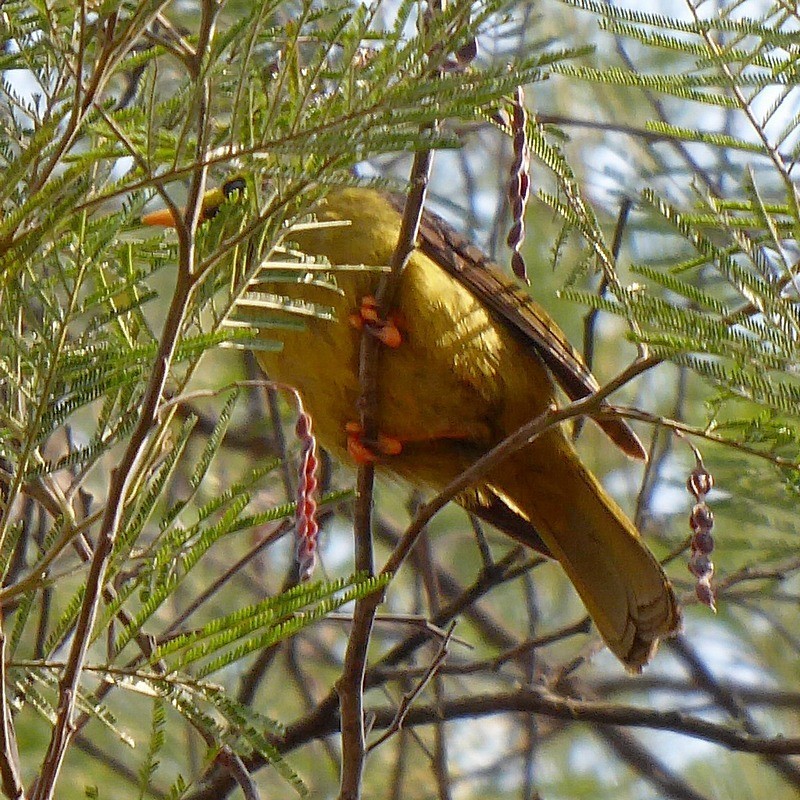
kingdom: Animalia
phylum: Chordata
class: Aves
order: Passeriformes
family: Meliphagidae
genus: Manorina
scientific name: Manorina melanophrys
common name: Bell miner
